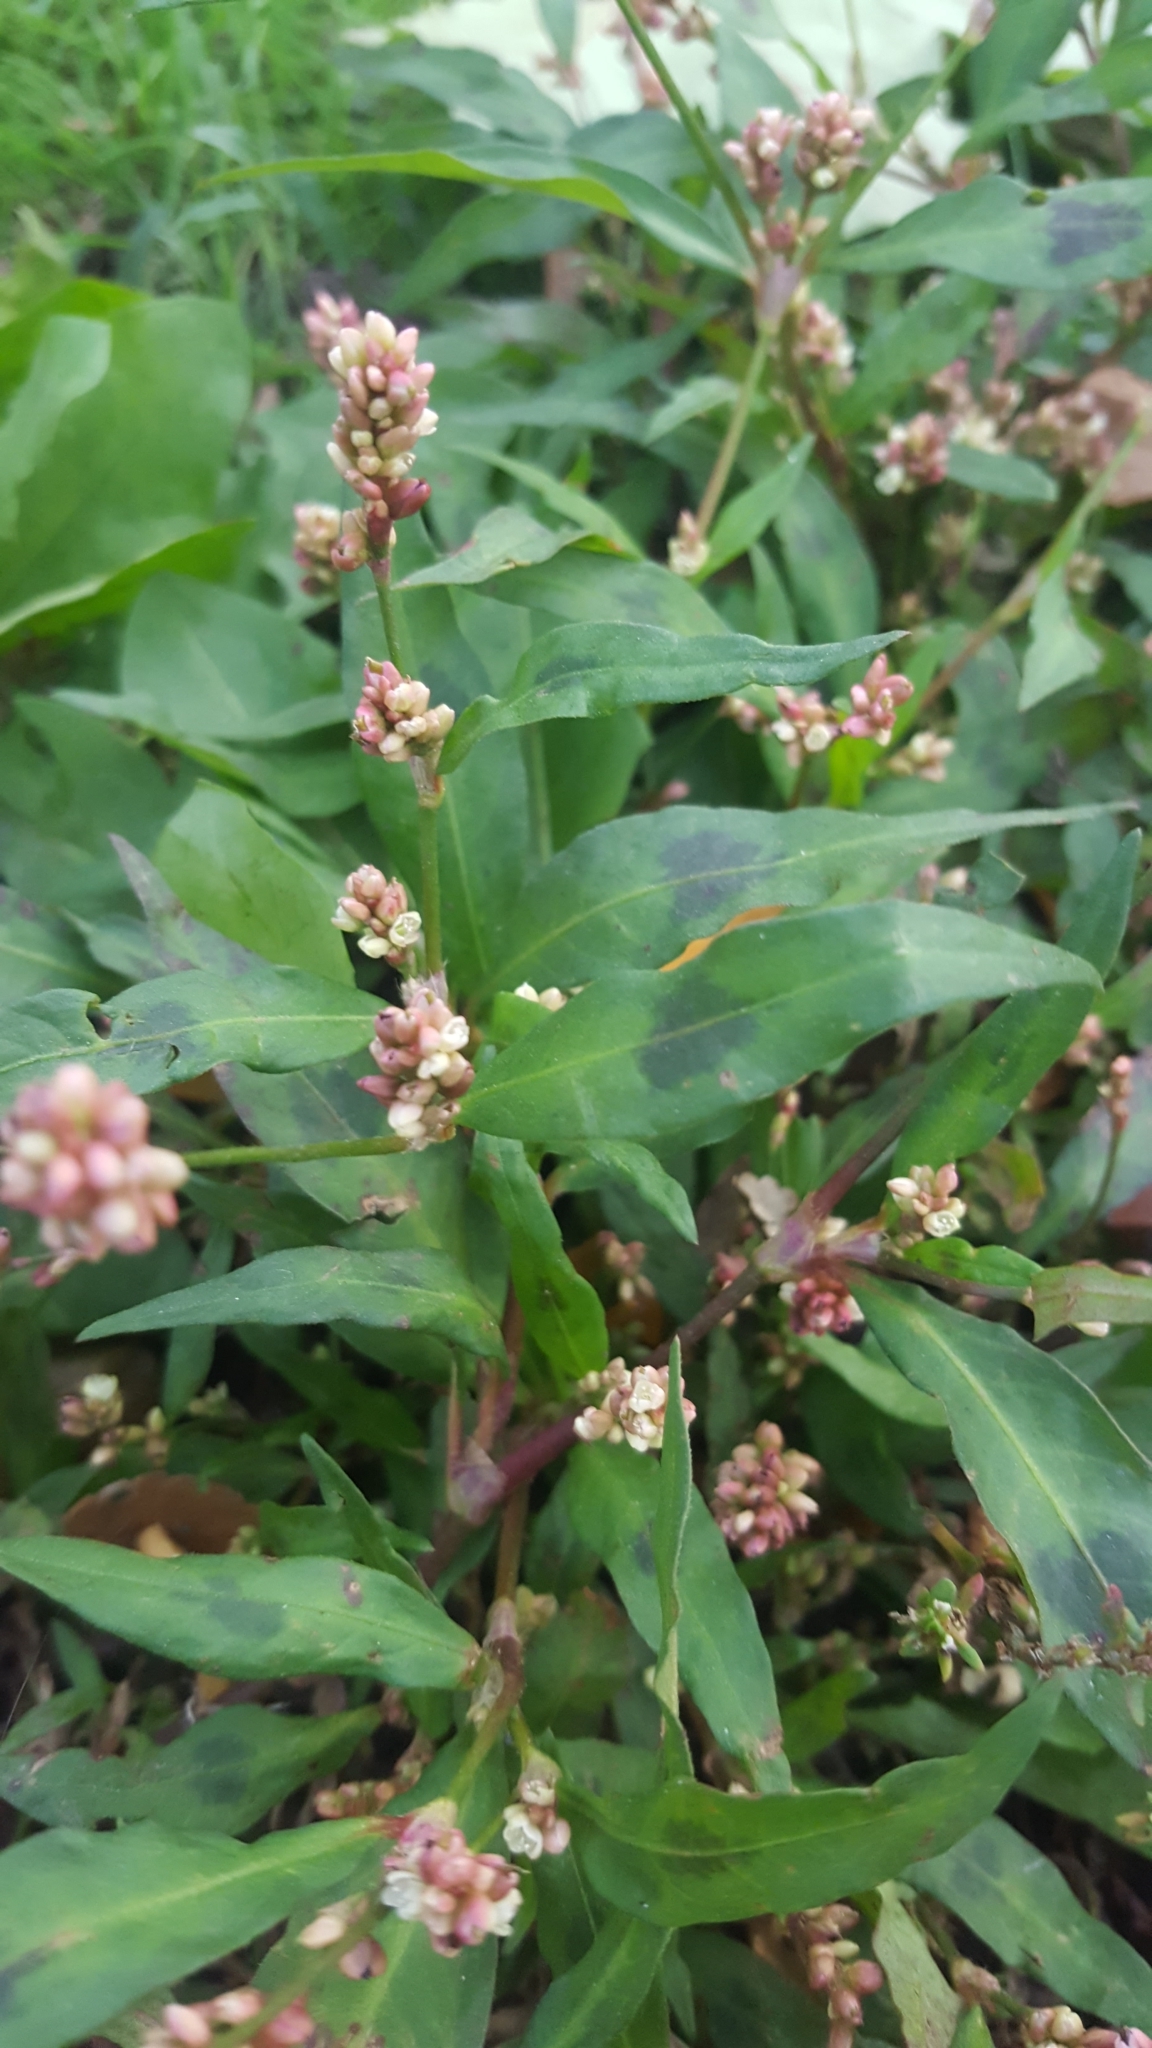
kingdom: Plantae
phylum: Tracheophyta
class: Magnoliopsida
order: Caryophyllales
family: Polygonaceae
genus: Persicaria
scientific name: Persicaria maculosa
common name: Redshank
